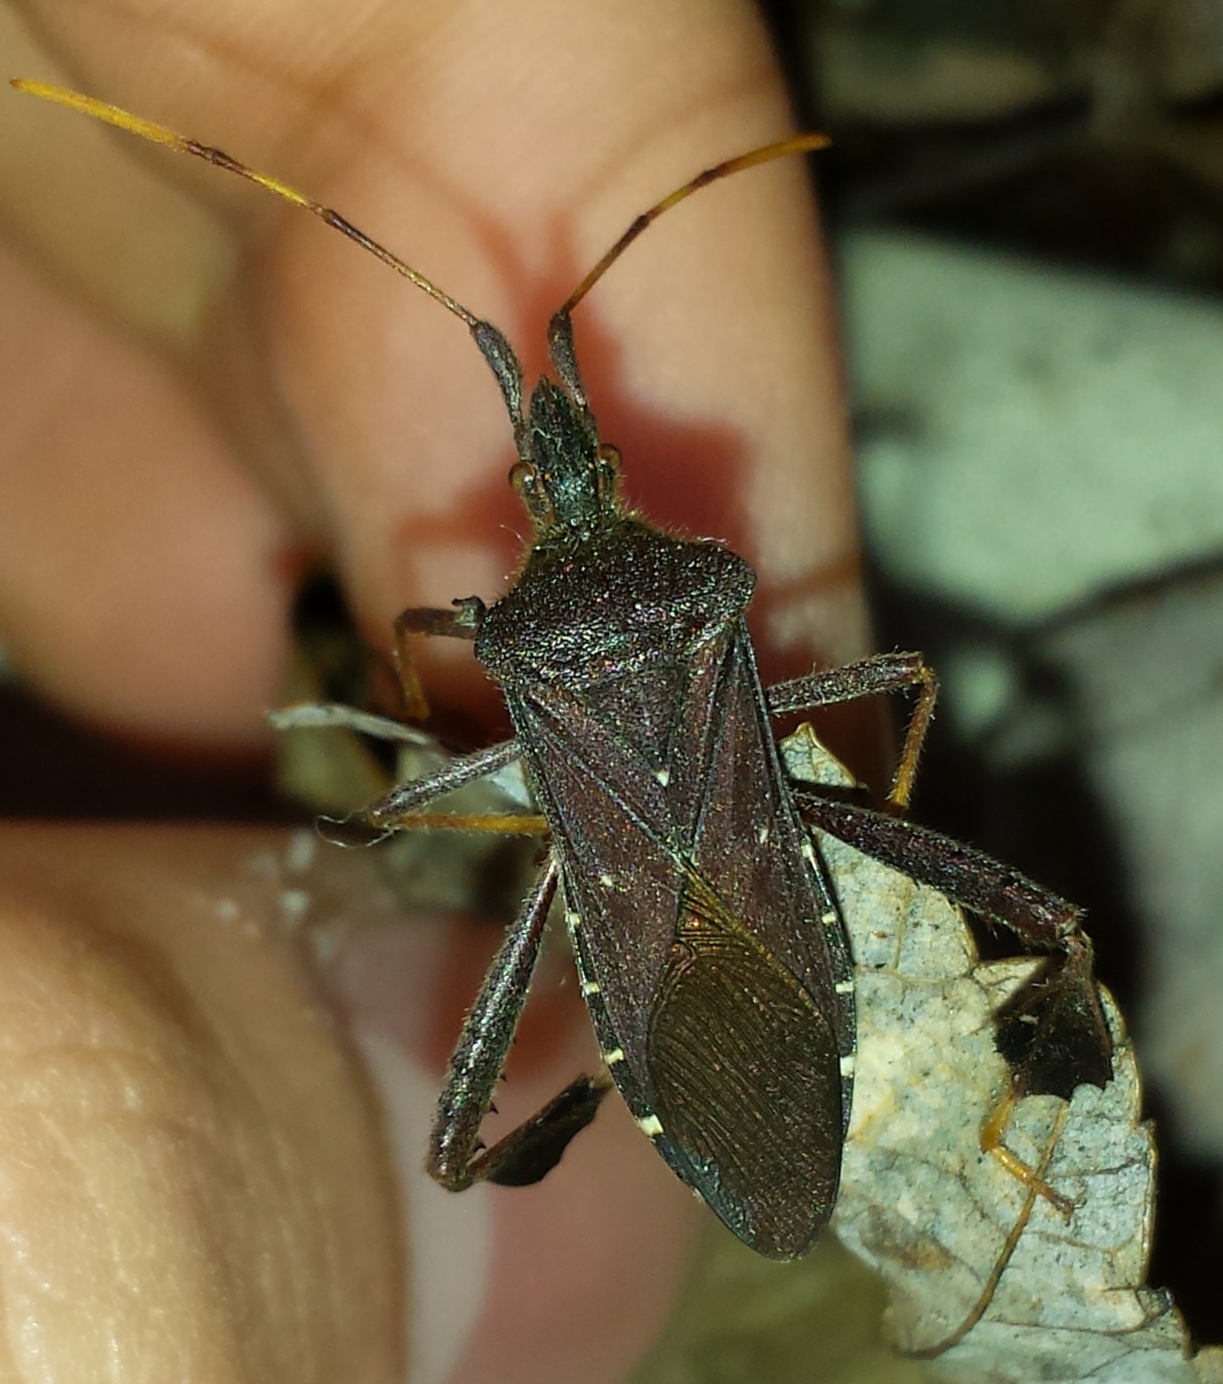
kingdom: Animalia
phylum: Arthropoda
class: Insecta
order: Hemiptera
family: Coreidae
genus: Leptoglossus
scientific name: Leptoglossus oppositus
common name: Northern leaf-footed bug
